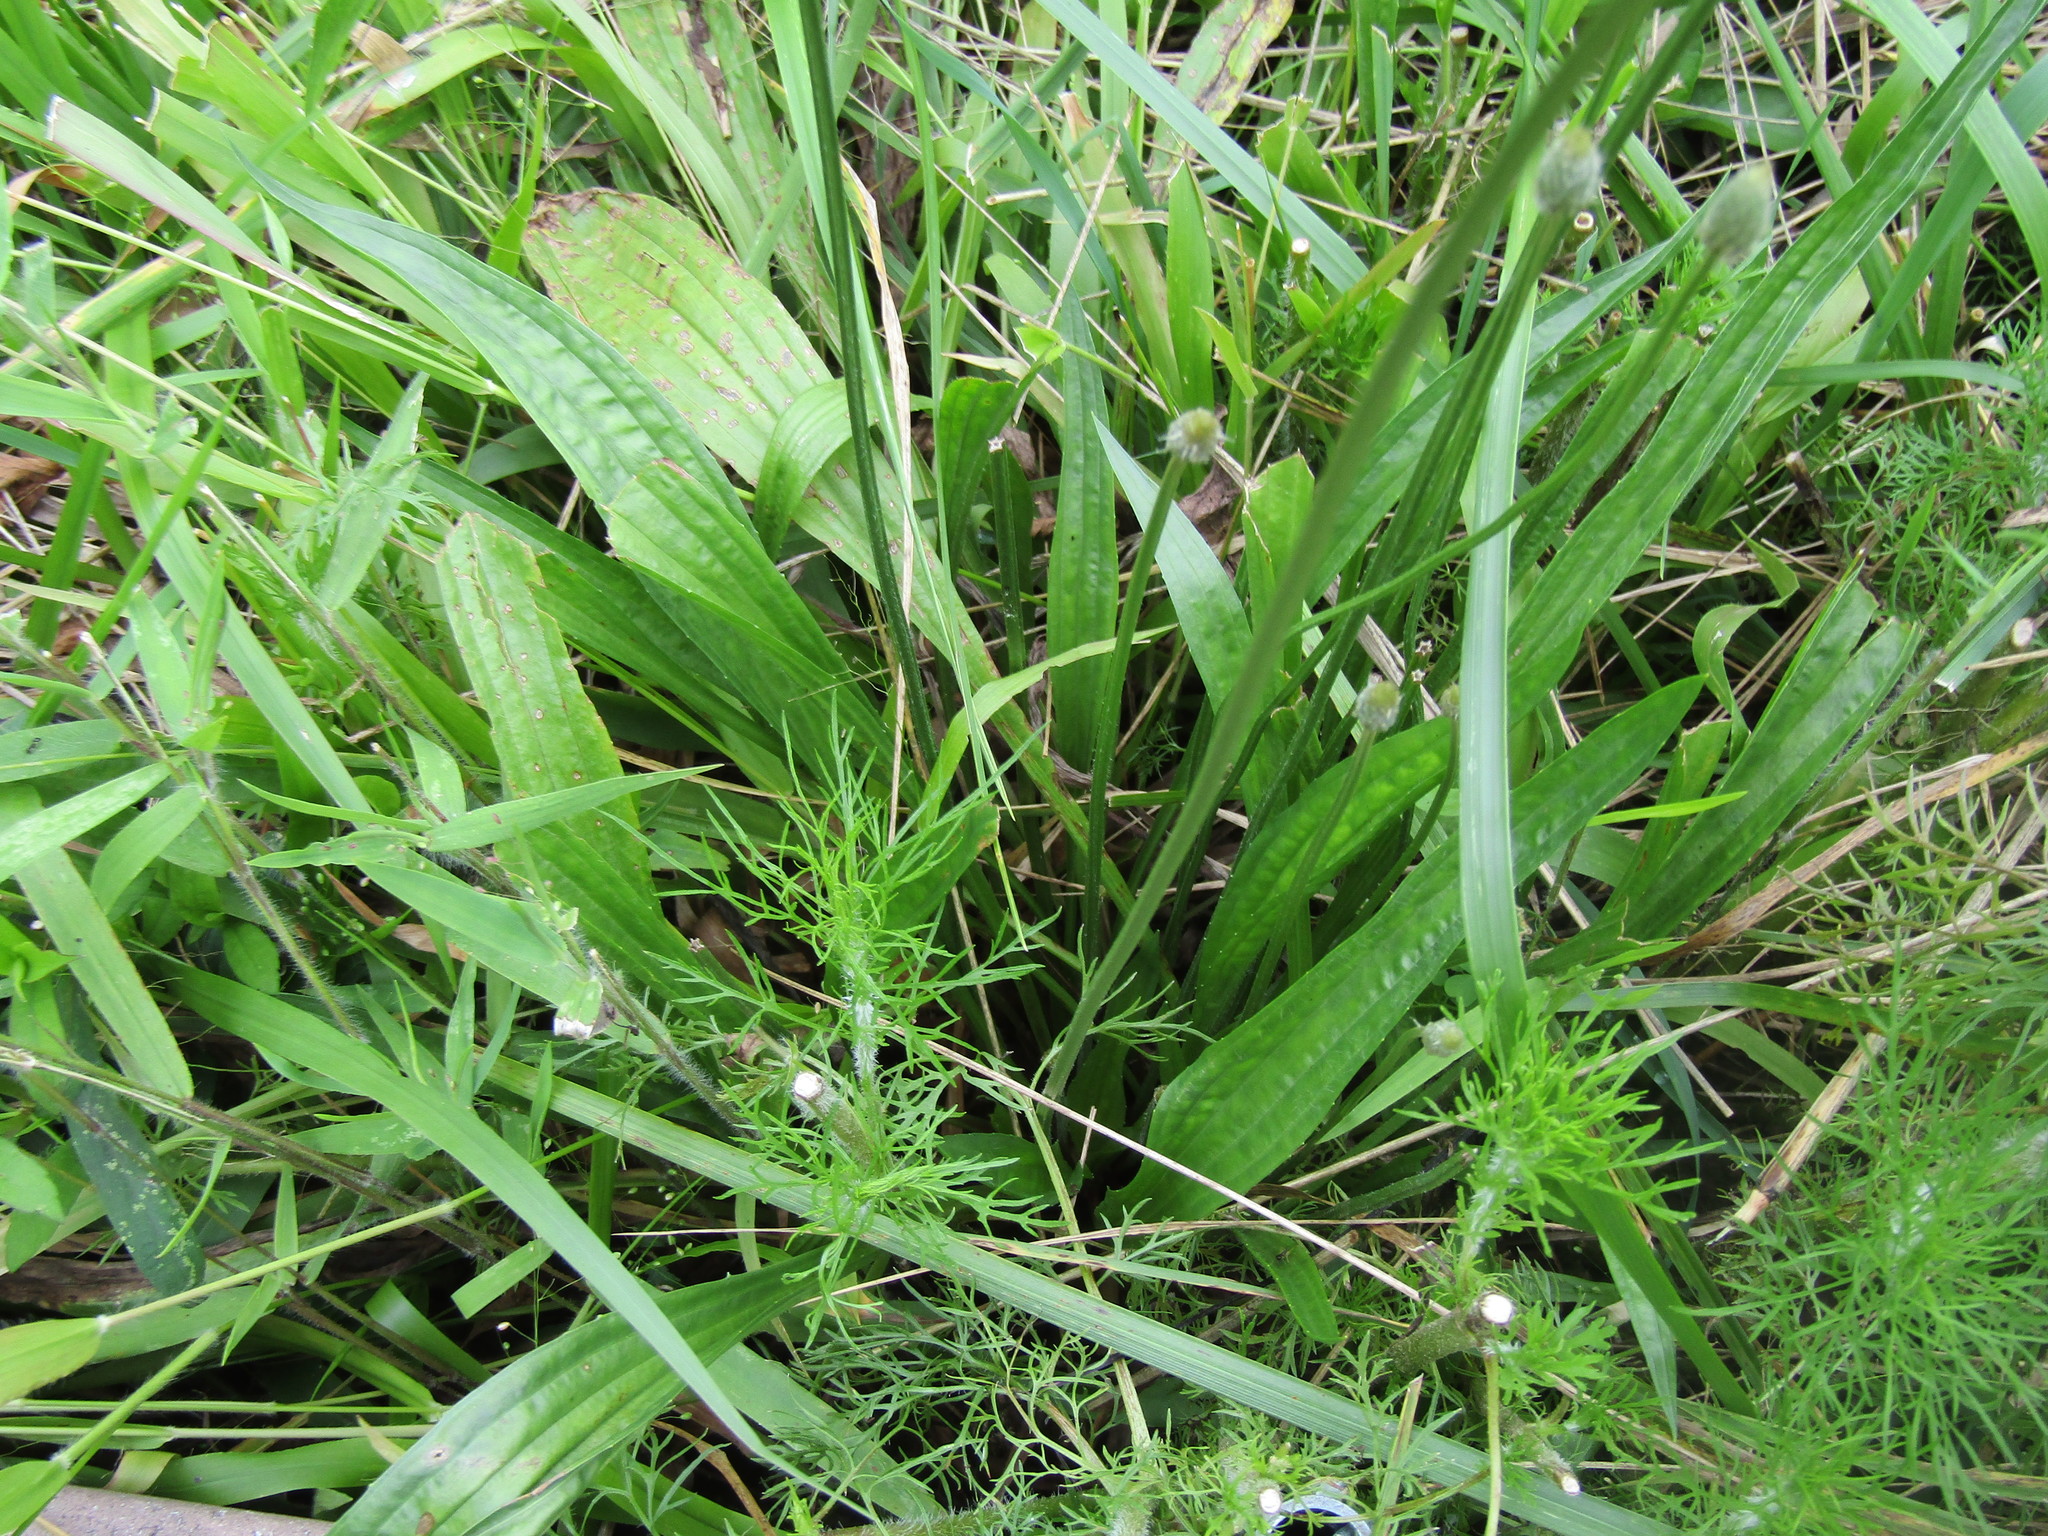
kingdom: Plantae
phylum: Tracheophyta
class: Magnoliopsida
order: Lamiales
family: Plantaginaceae
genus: Plantago
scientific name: Plantago lanceolata
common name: Ribwort plantain
